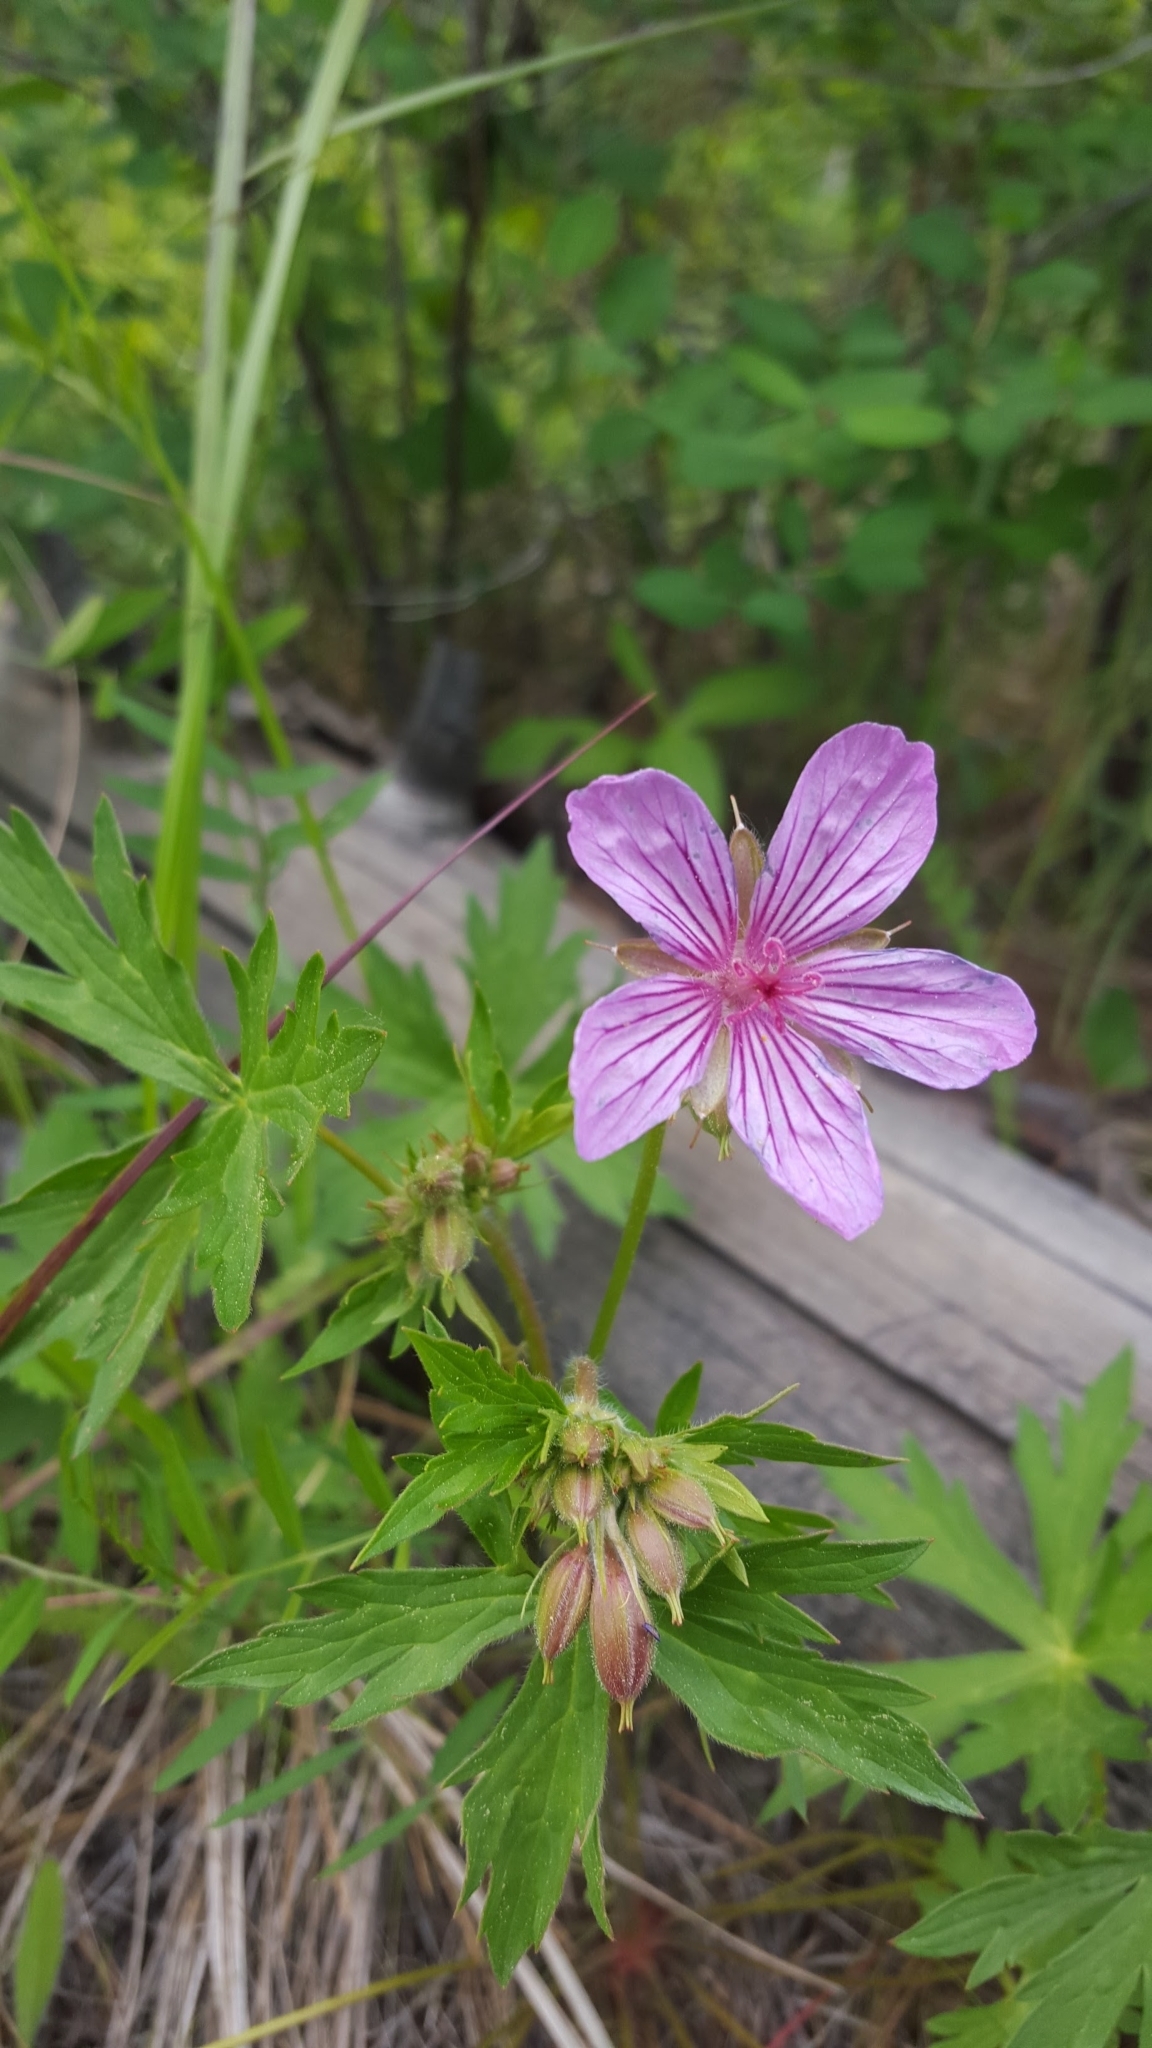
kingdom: Plantae
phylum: Tracheophyta
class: Magnoliopsida
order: Geraniales
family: Geraniaceae
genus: Geranium
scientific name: Geranium viscosissimum
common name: Purple geranium
